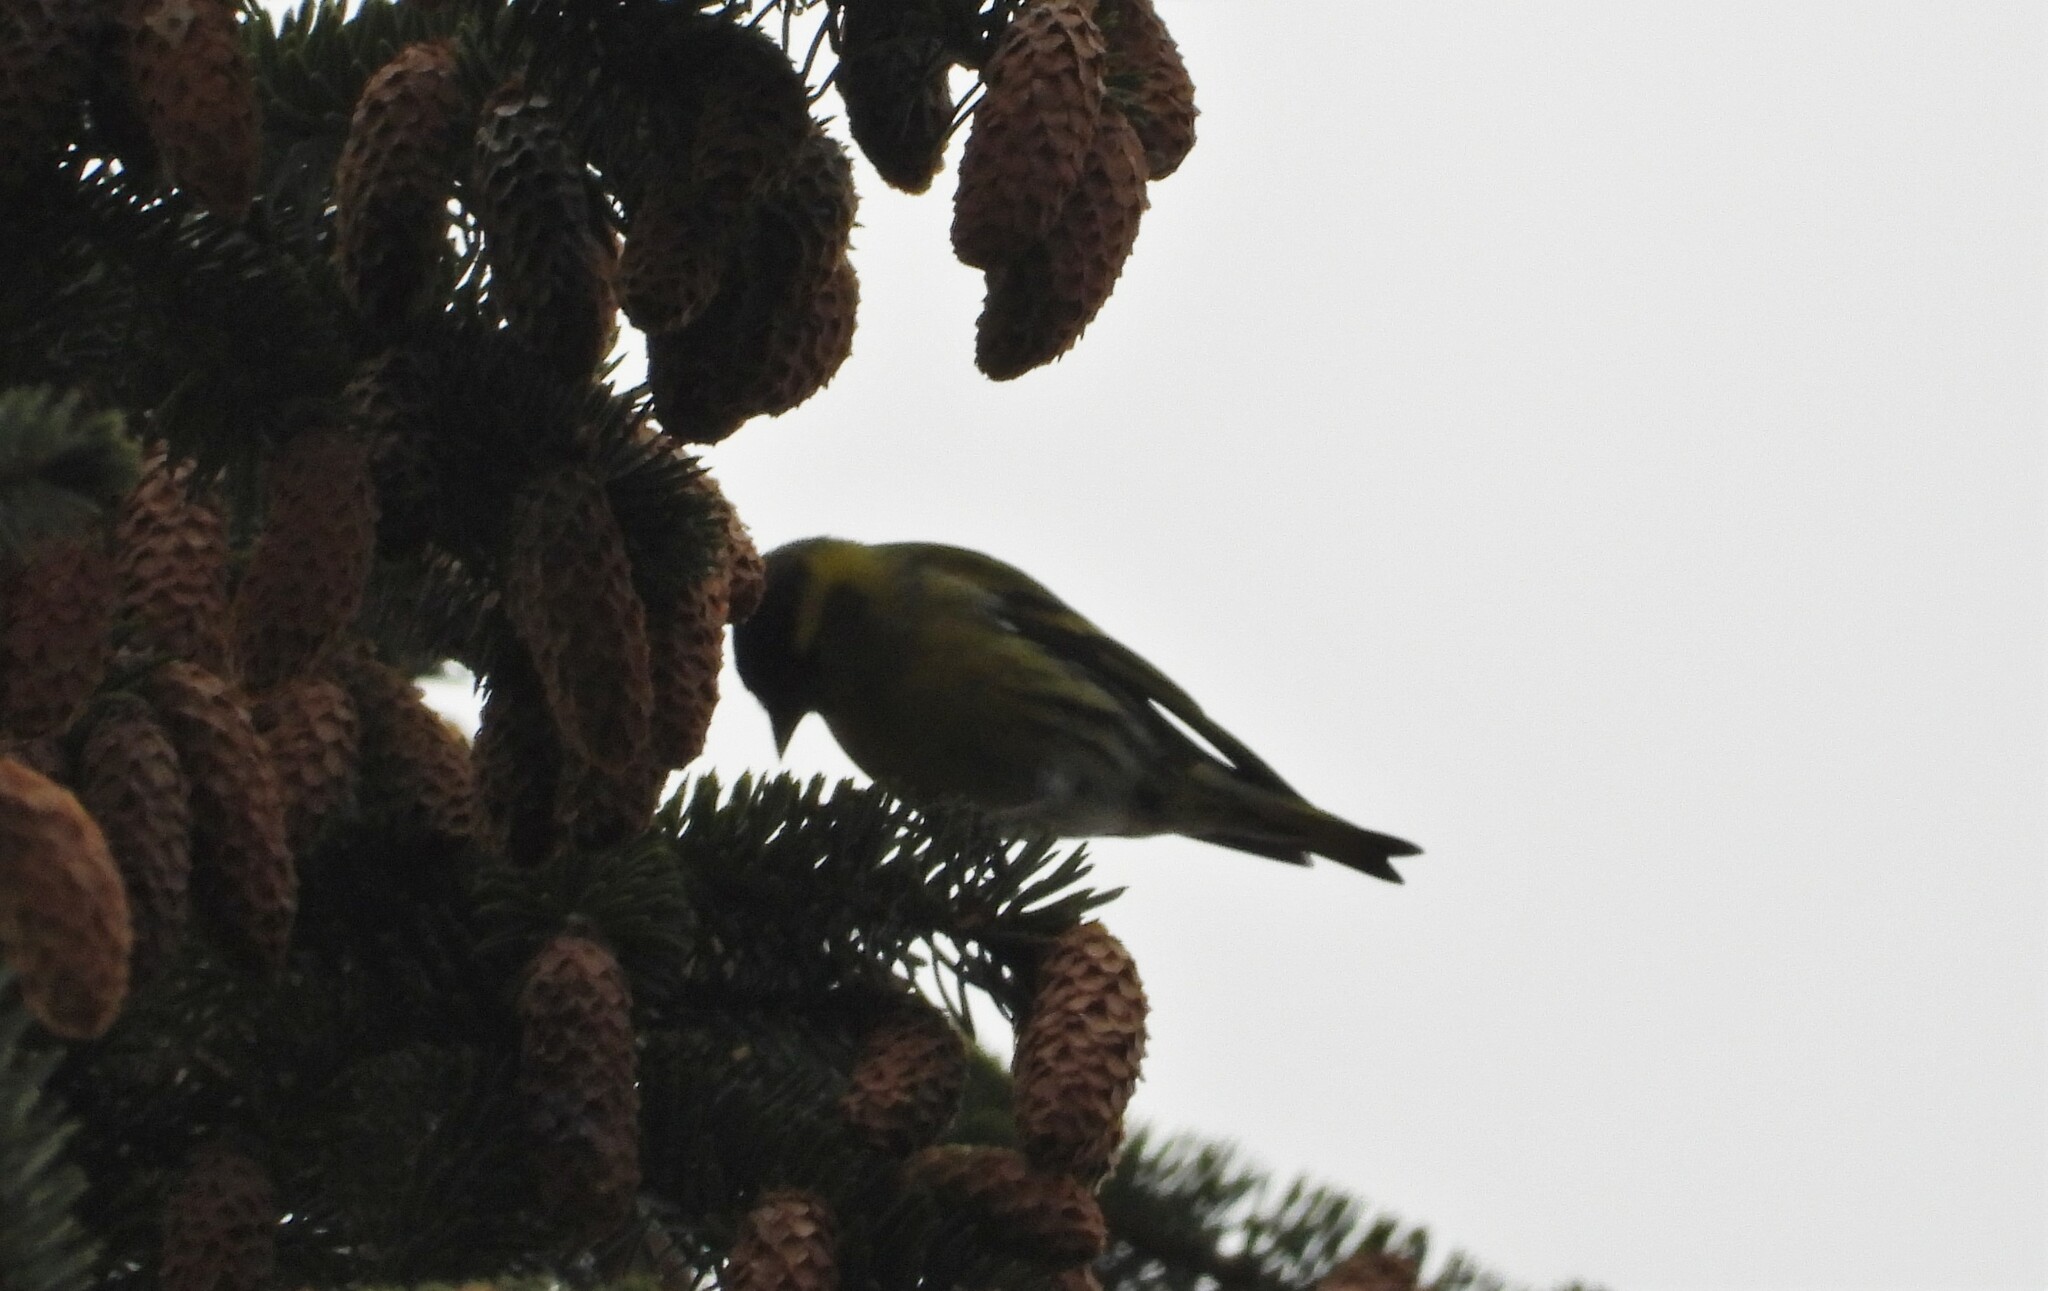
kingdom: Animalia
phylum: Chordata
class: Aves
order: Passeriformes
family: Fringillidae
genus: Spinus
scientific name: Spinus spinus
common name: Eurasian siskin
